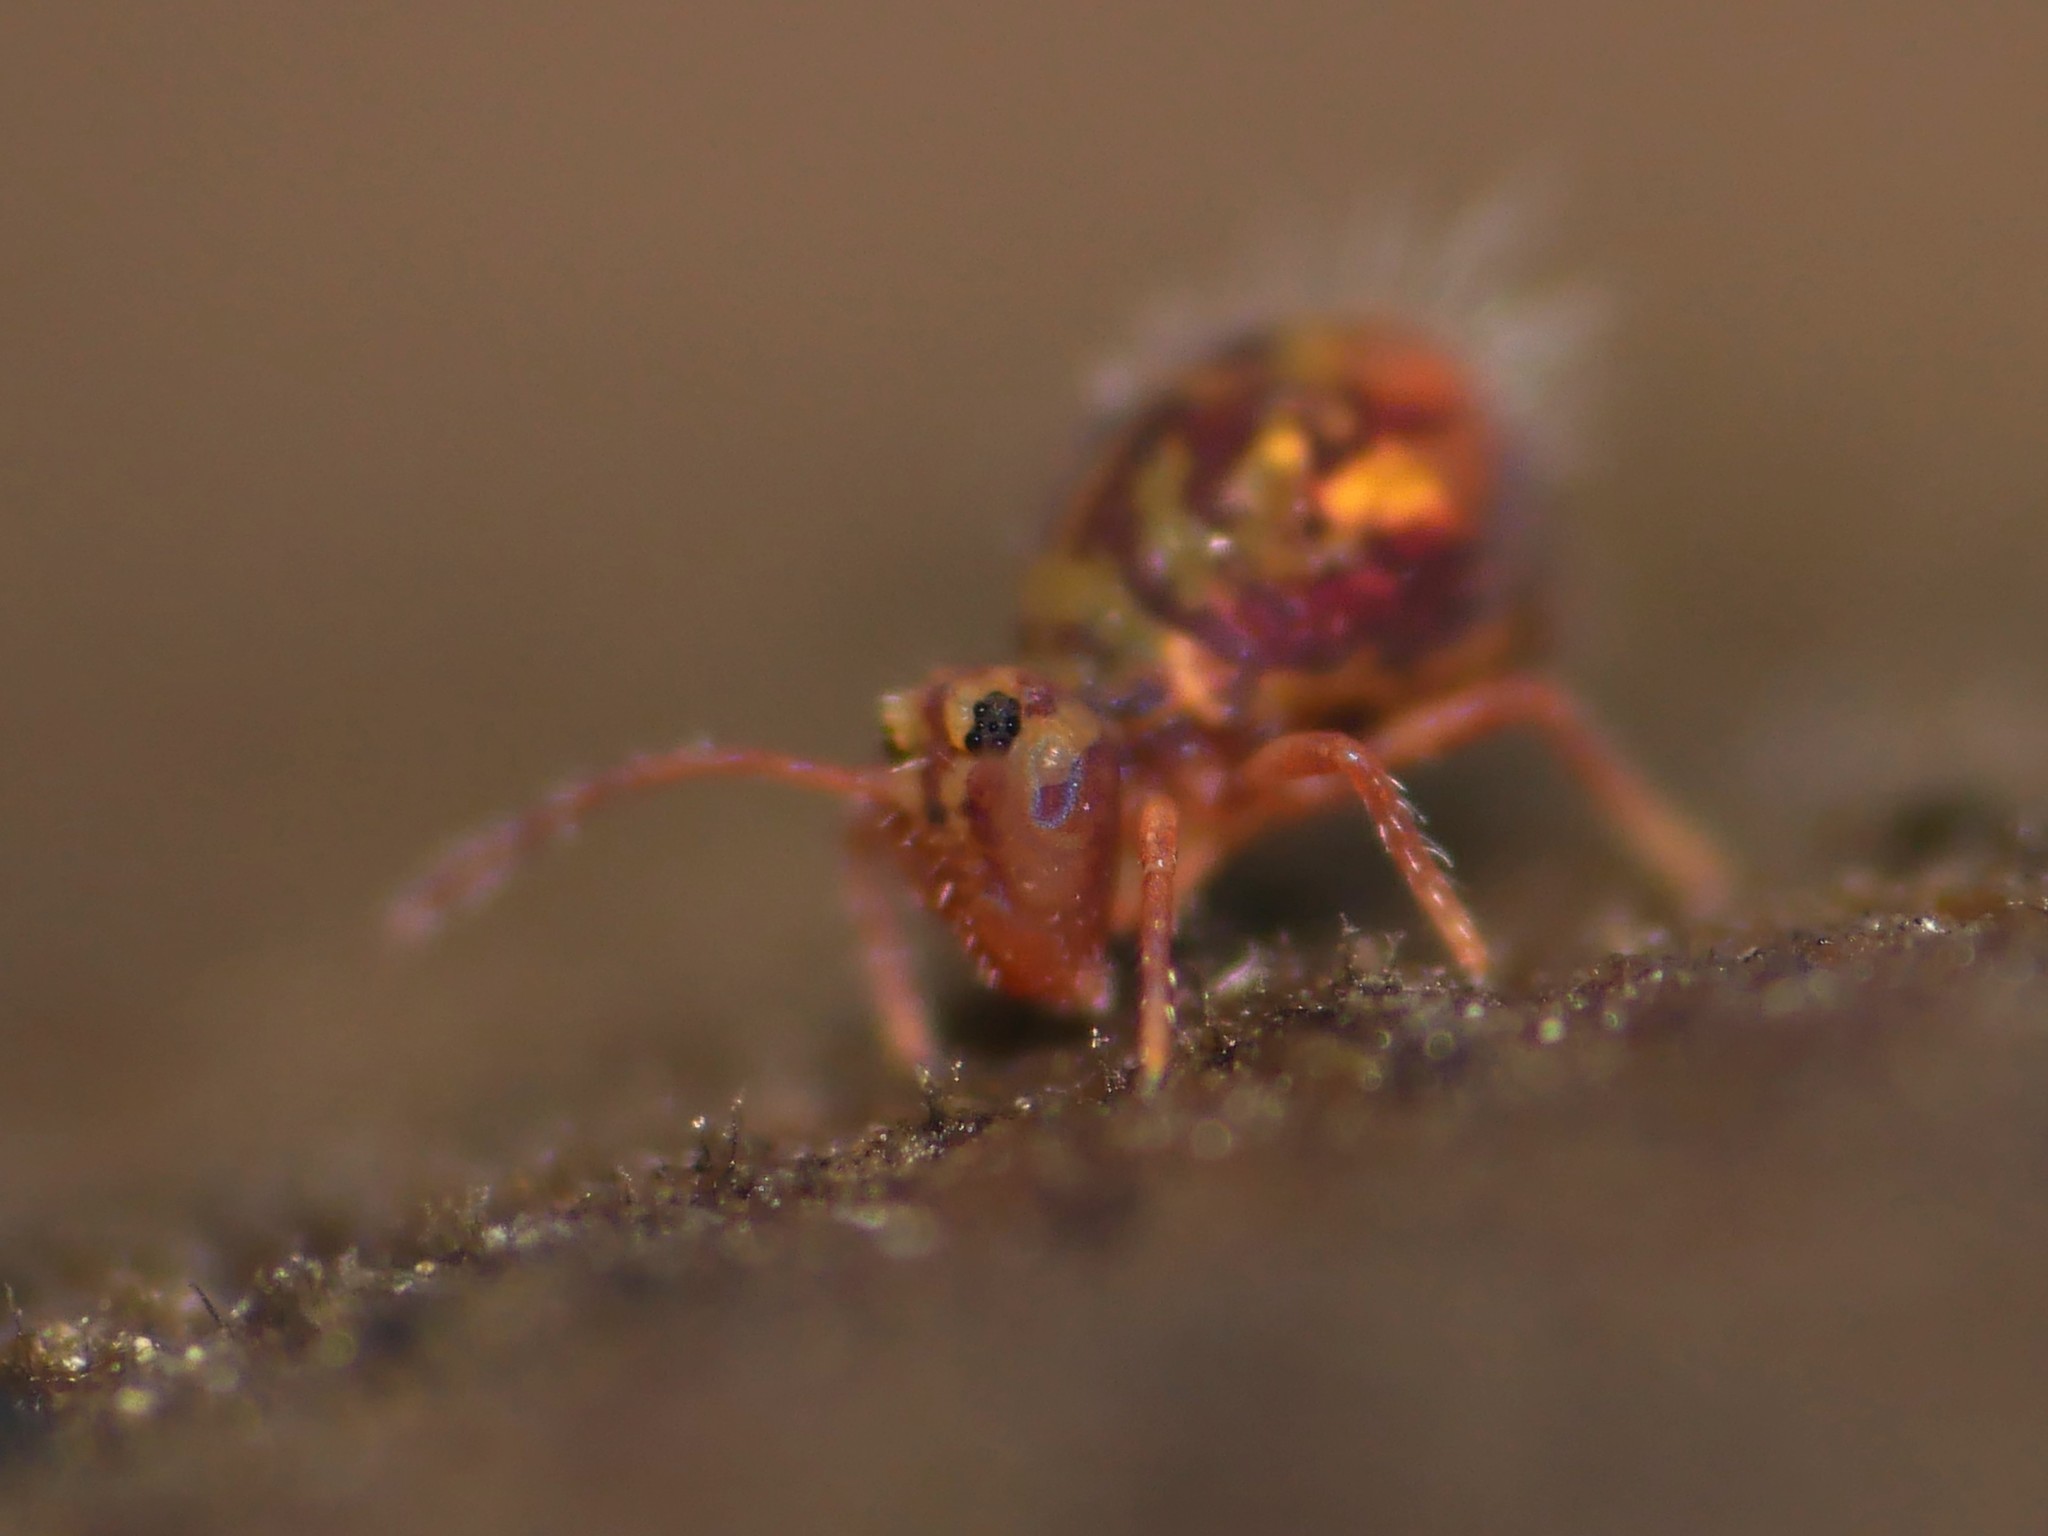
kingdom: Animalia
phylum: Arthropoda
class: Collembola
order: Symphypleona
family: Dicyrtomidae
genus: Dicyrtomina
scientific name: Dicyrtomina ornata
